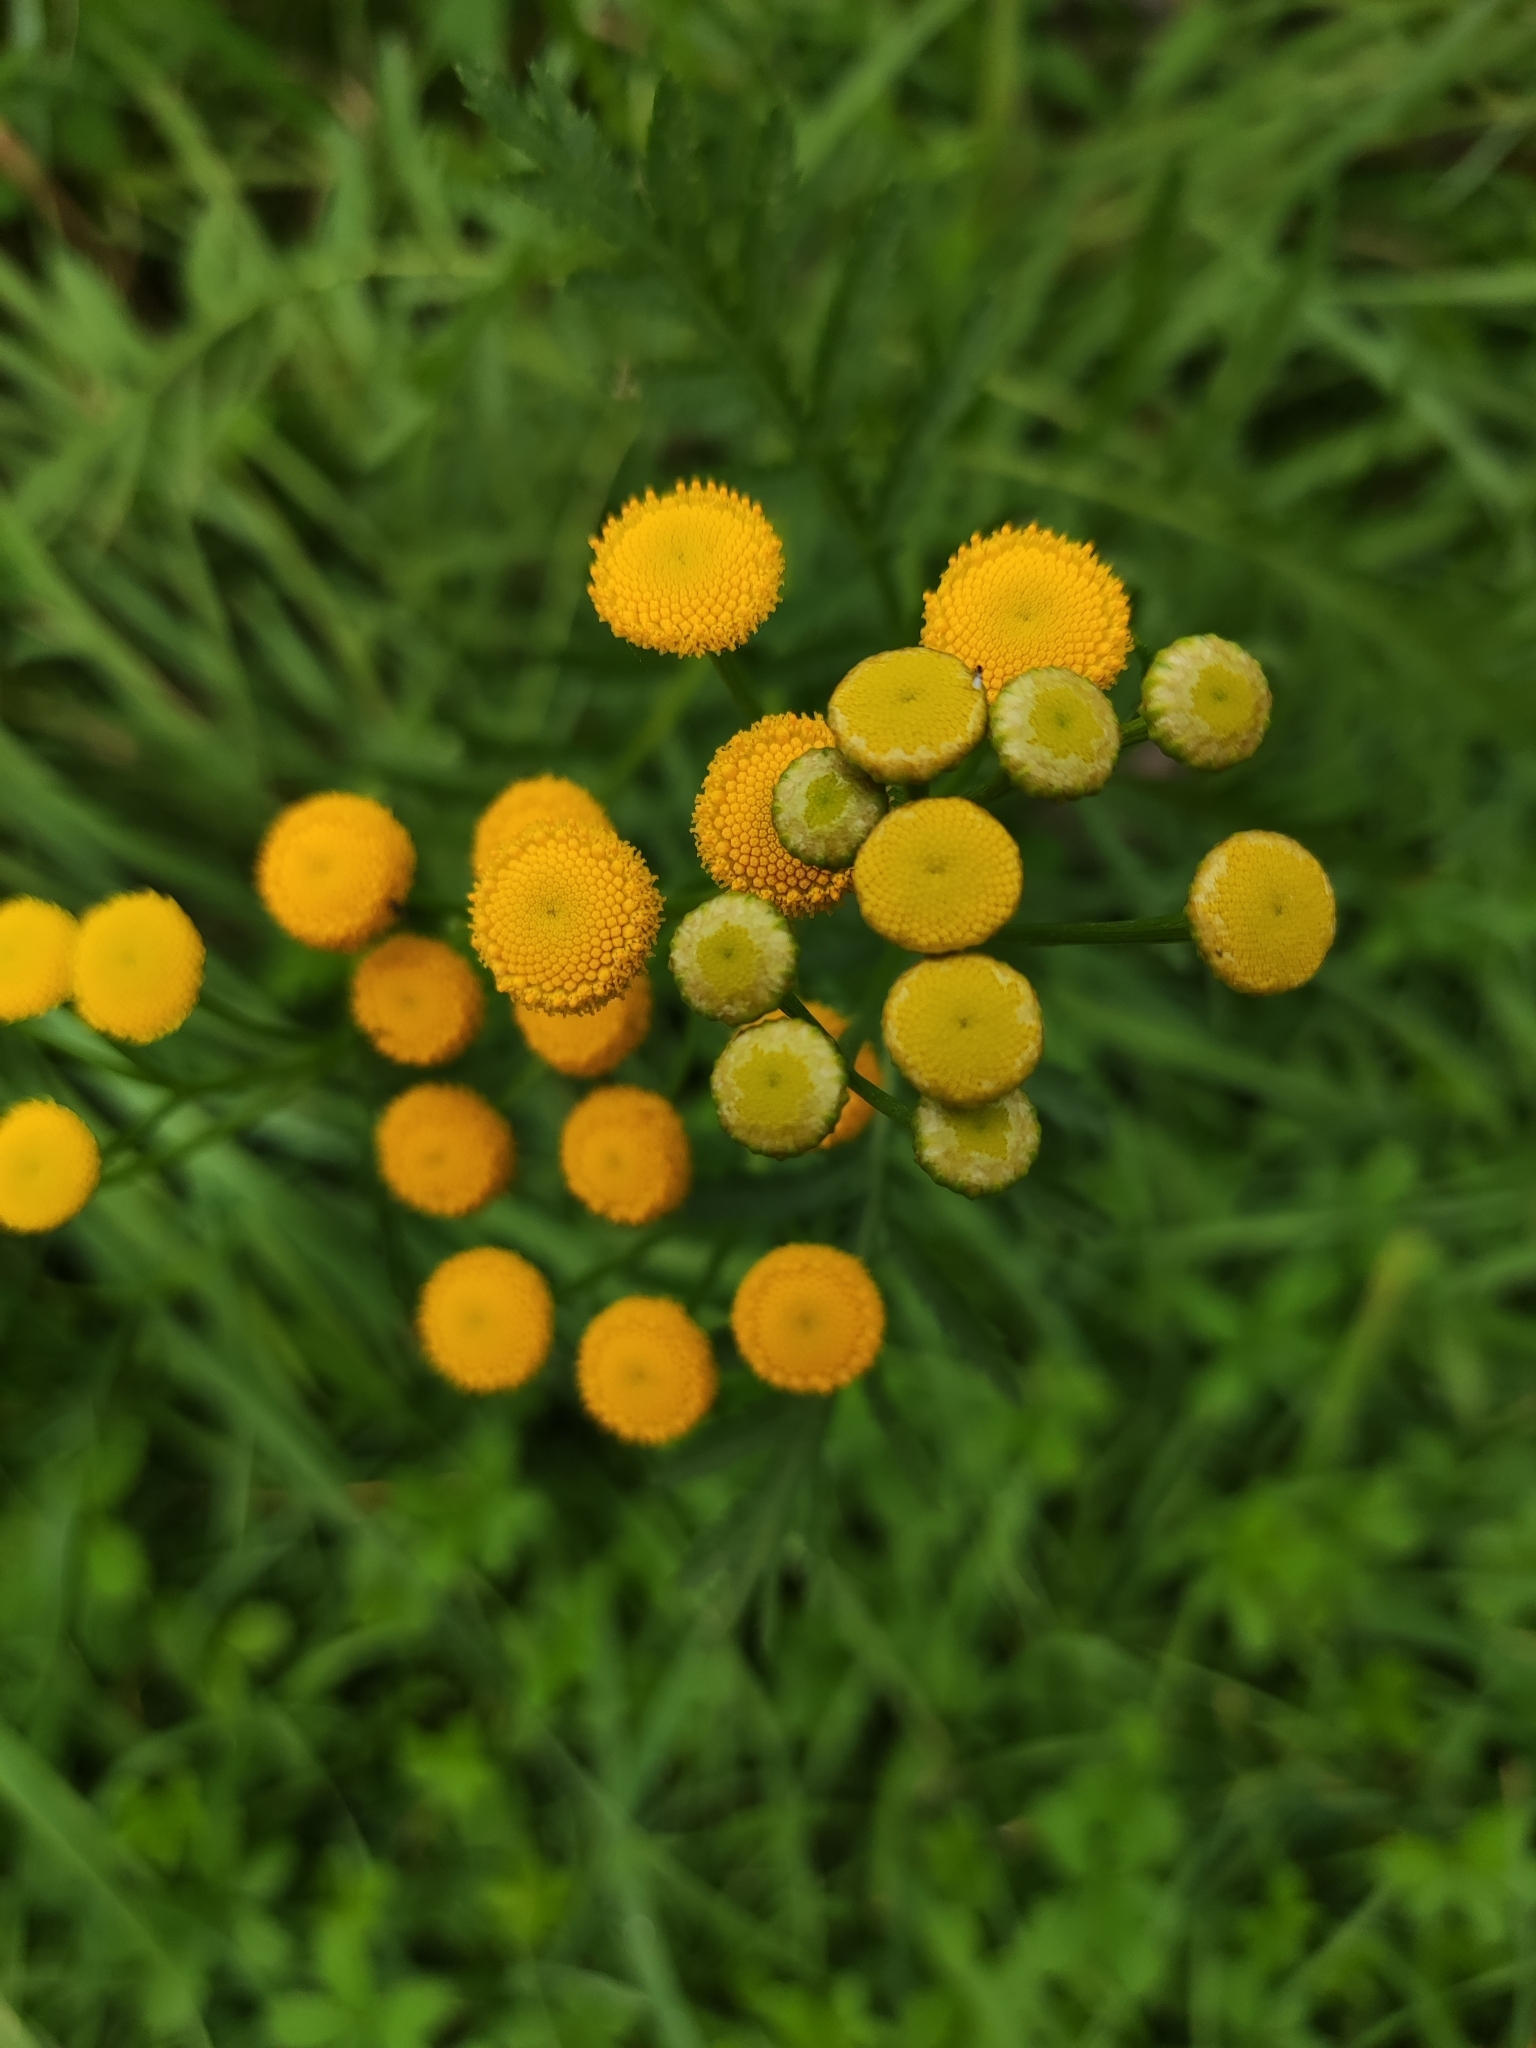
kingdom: Plantae
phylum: Tracheophyta
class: Magnoliopsida
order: Asterales
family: Asteraceae
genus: Tanacetum
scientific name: Tanacetum vulgare
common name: Common tansy
